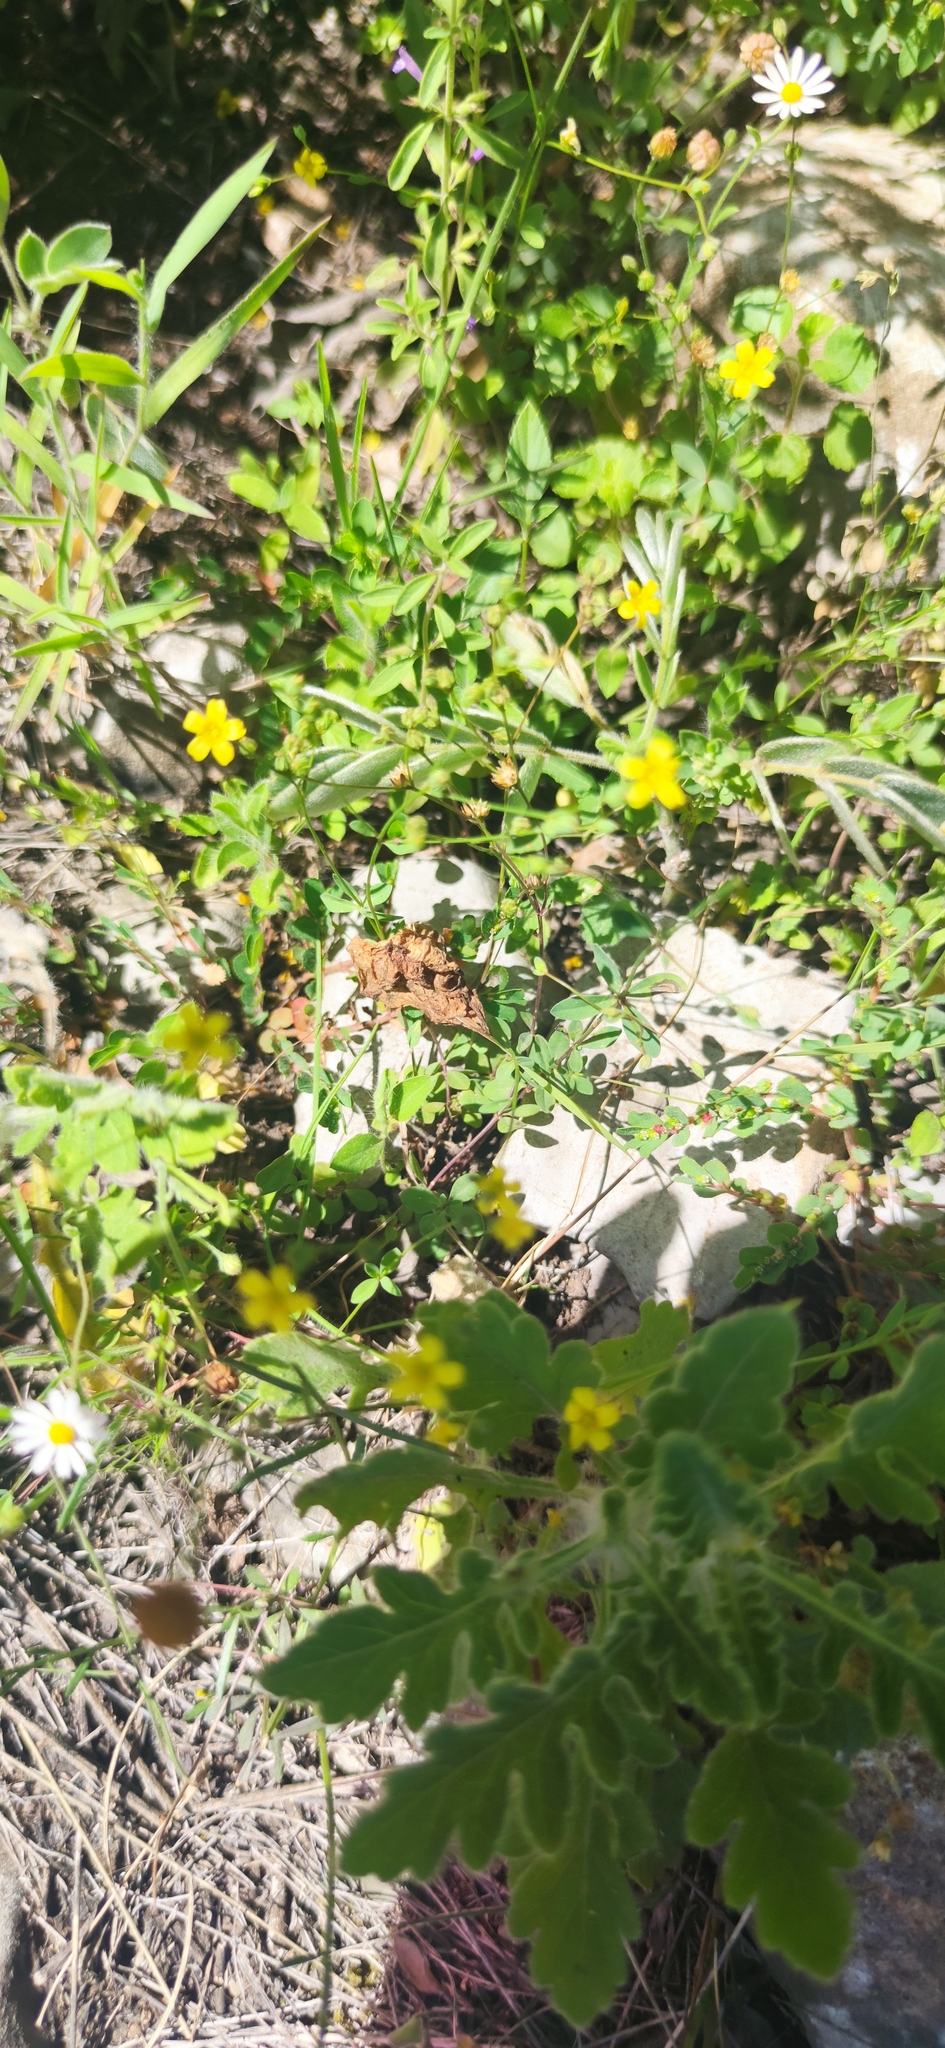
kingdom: Plantae
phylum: Tracheophyta
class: Magnoliopsida
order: Malpighiales
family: Linaceae
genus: Linum
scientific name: Linum rupestre
